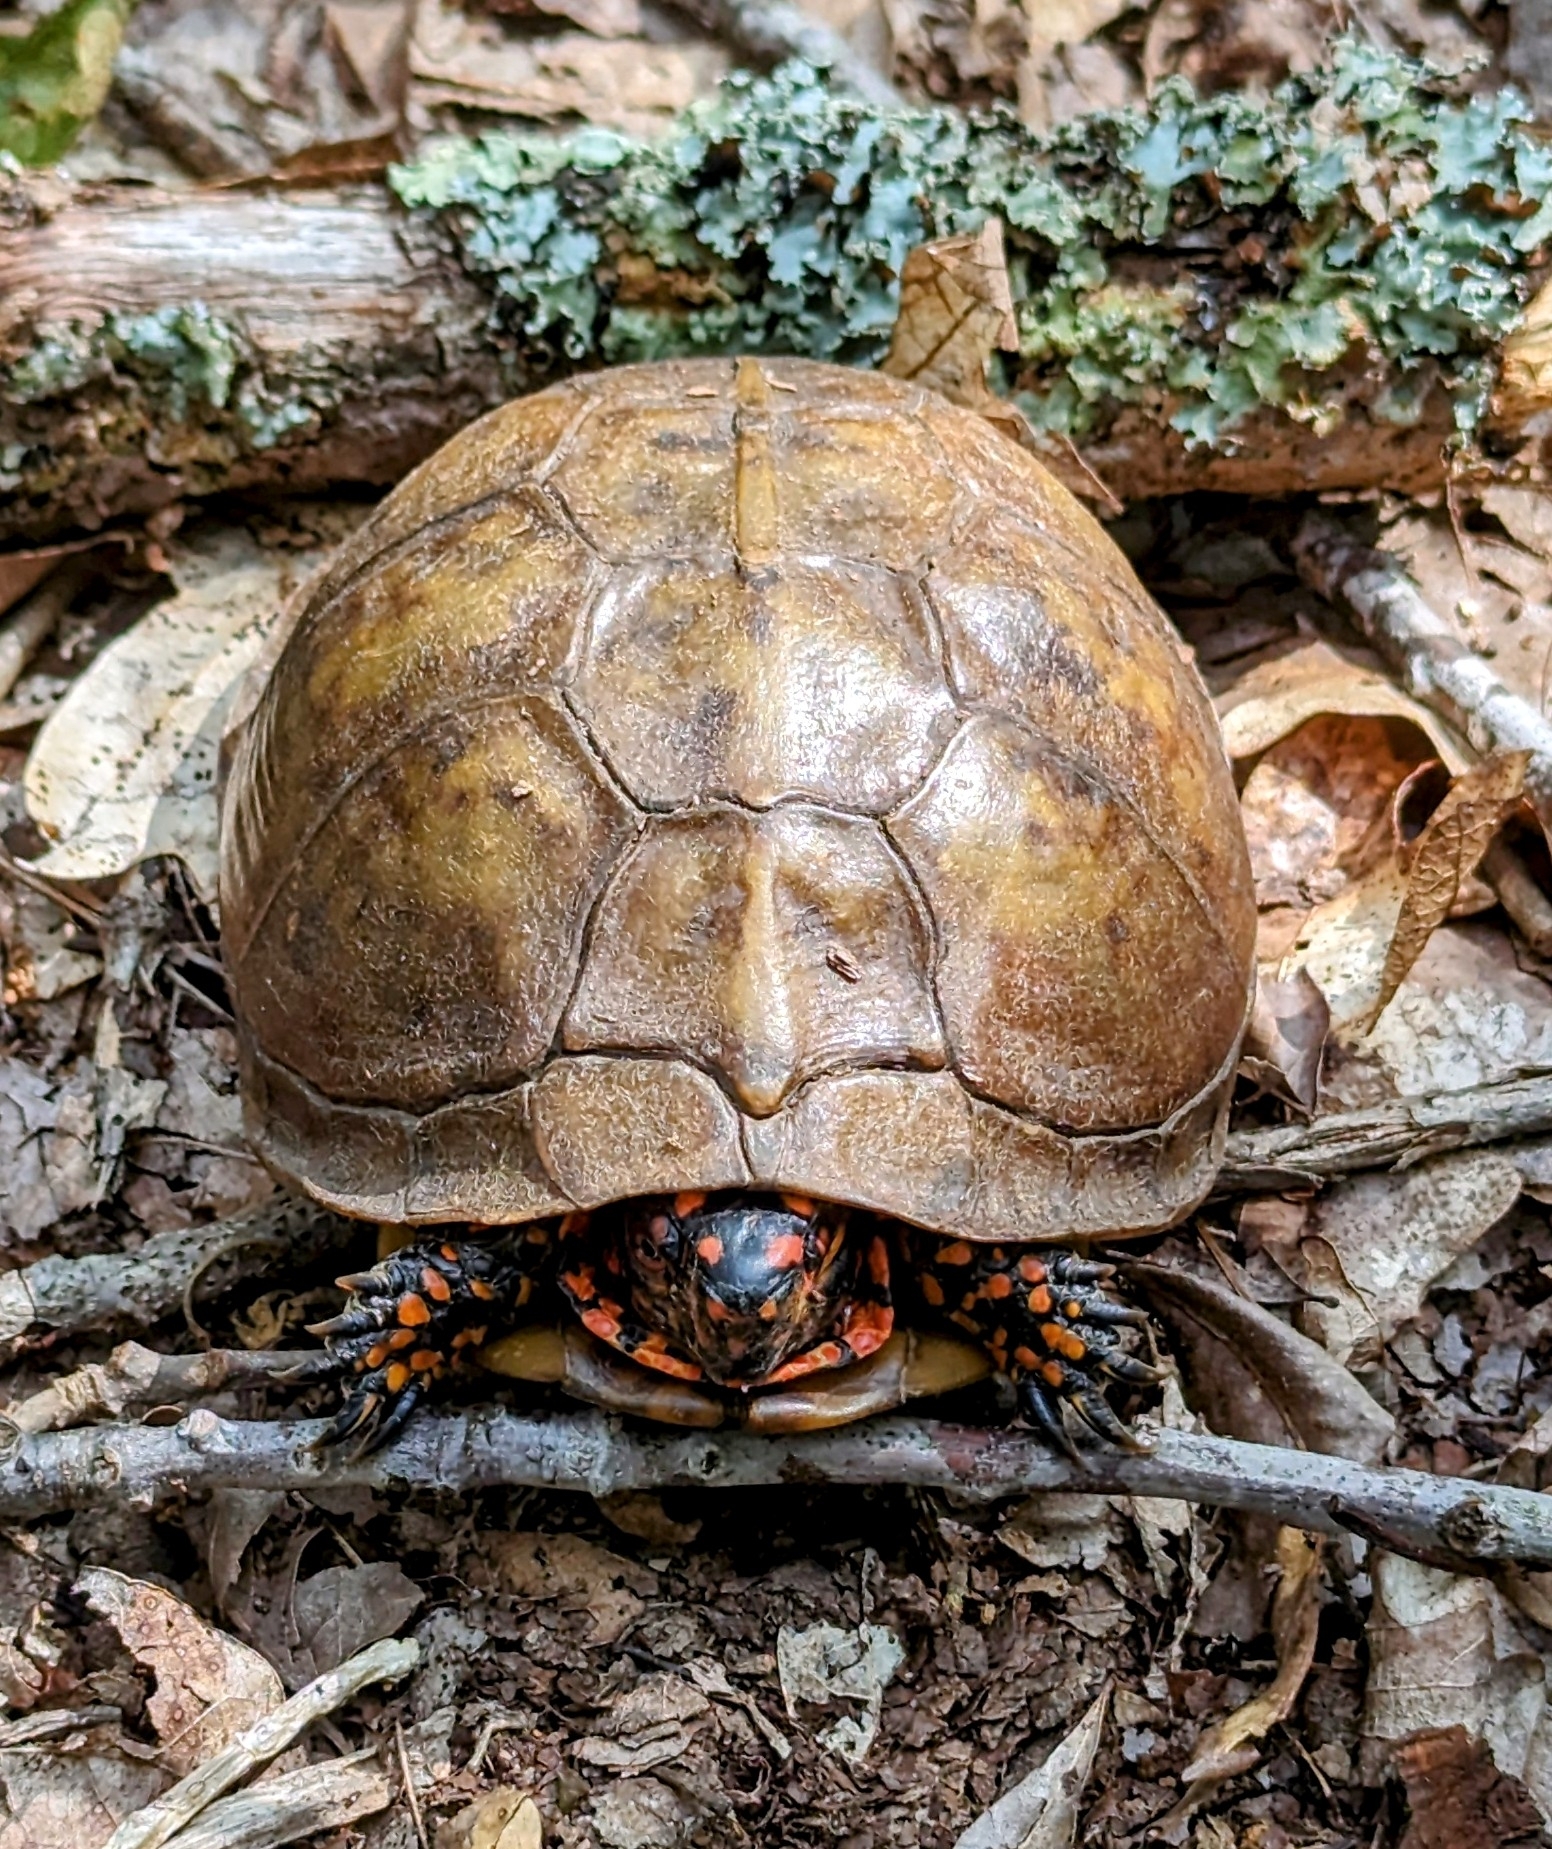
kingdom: Animalia
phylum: Chordata
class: Testudines
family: Emydidae
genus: Terrapene
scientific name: Terrapene carolina
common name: Common box turtle
